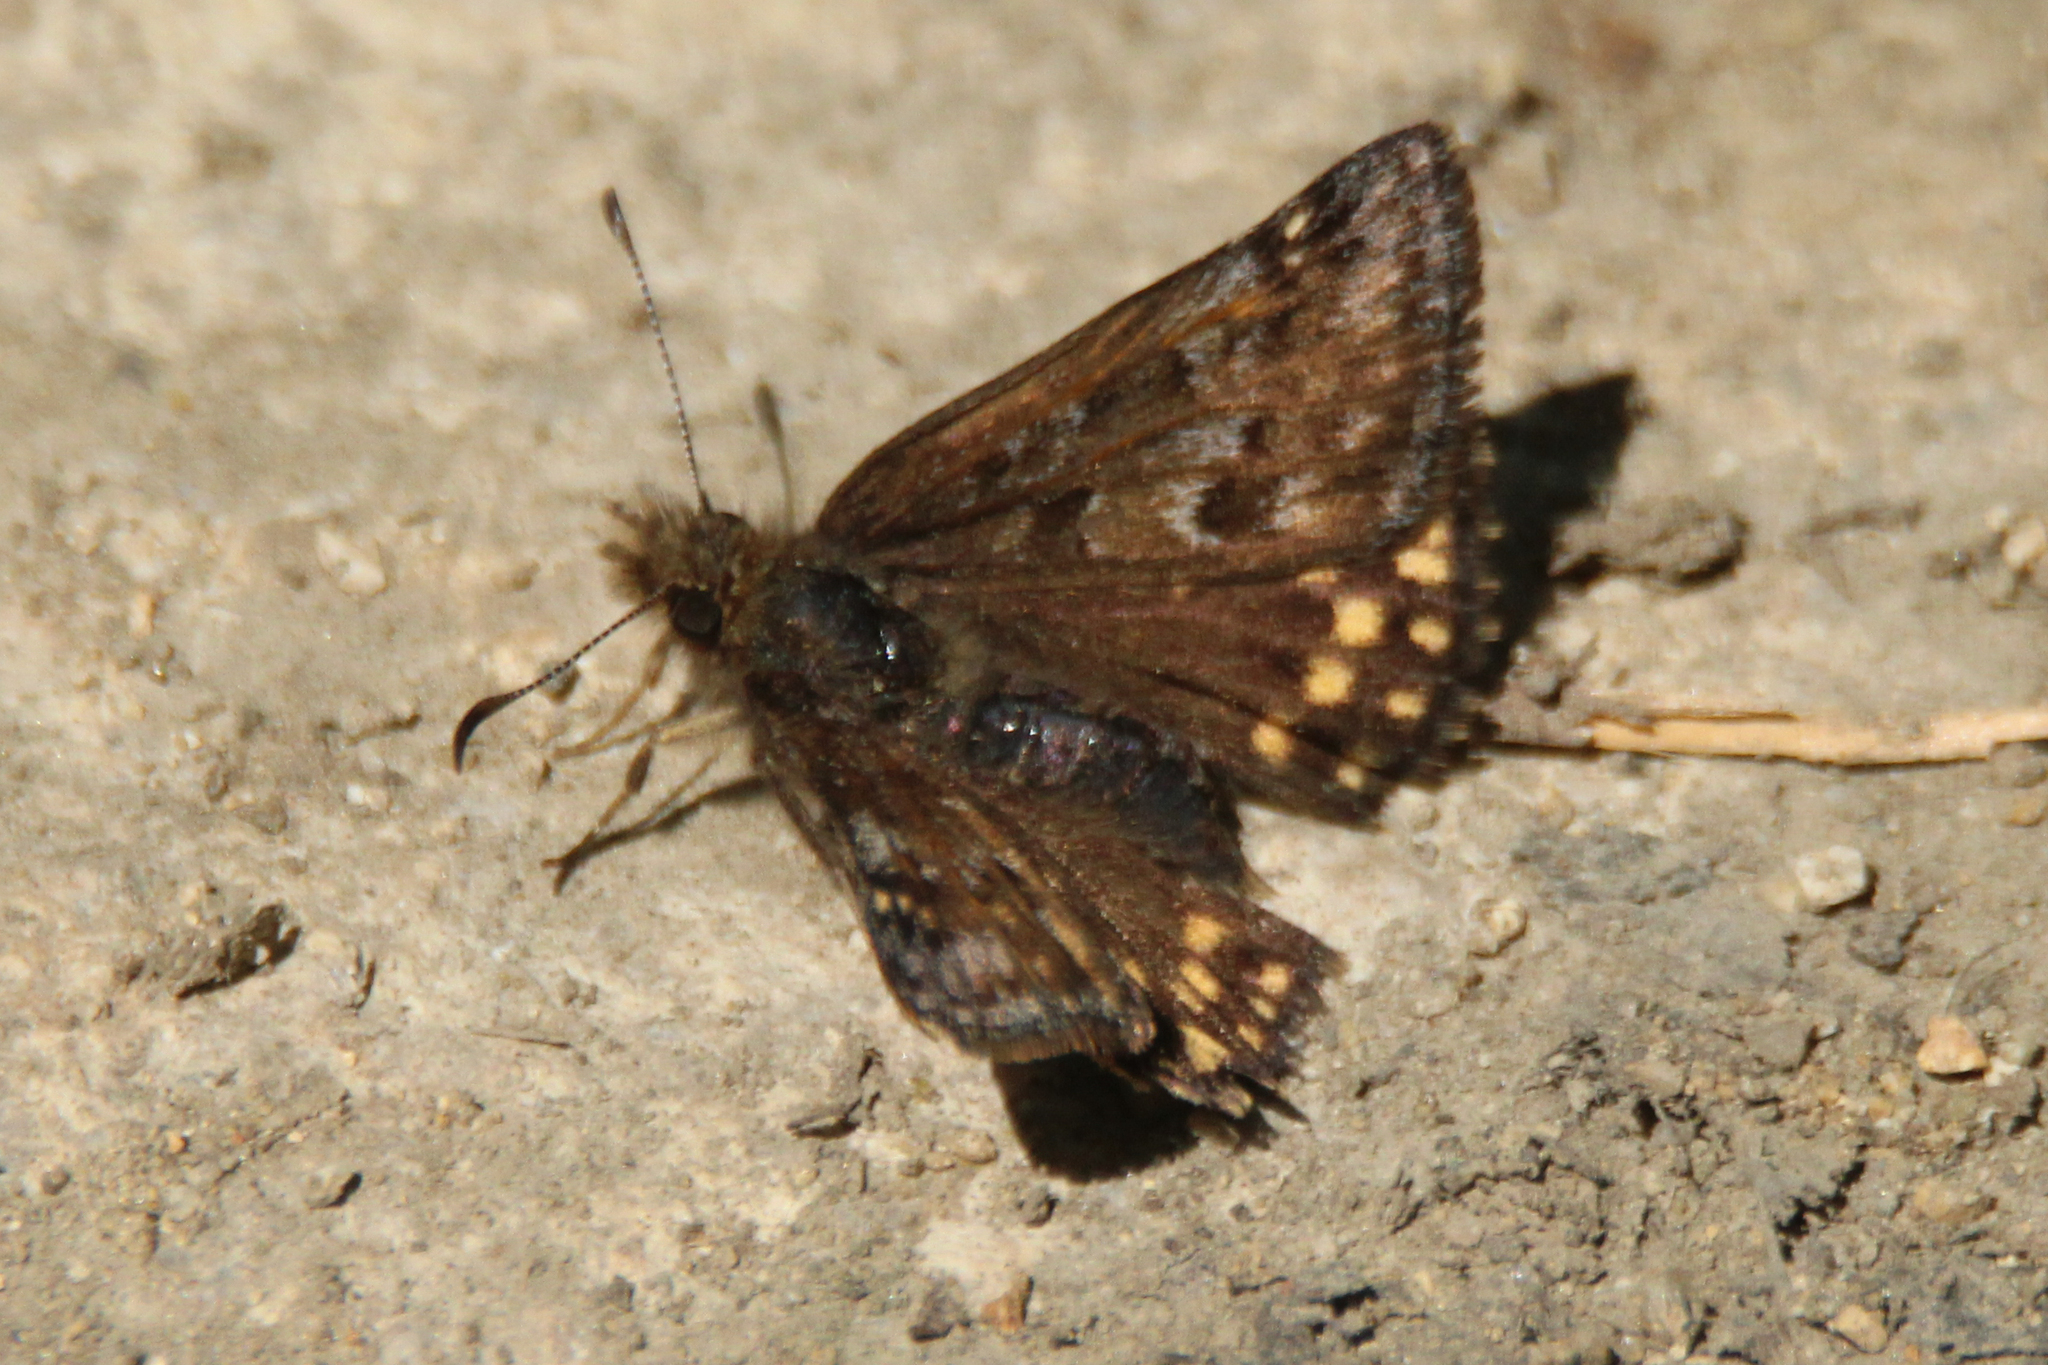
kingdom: Animalia
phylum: Arthropoda
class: Insecta
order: Lepidoptera
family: Hesperiidae
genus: Erynnis
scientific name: Erynnis montanus
